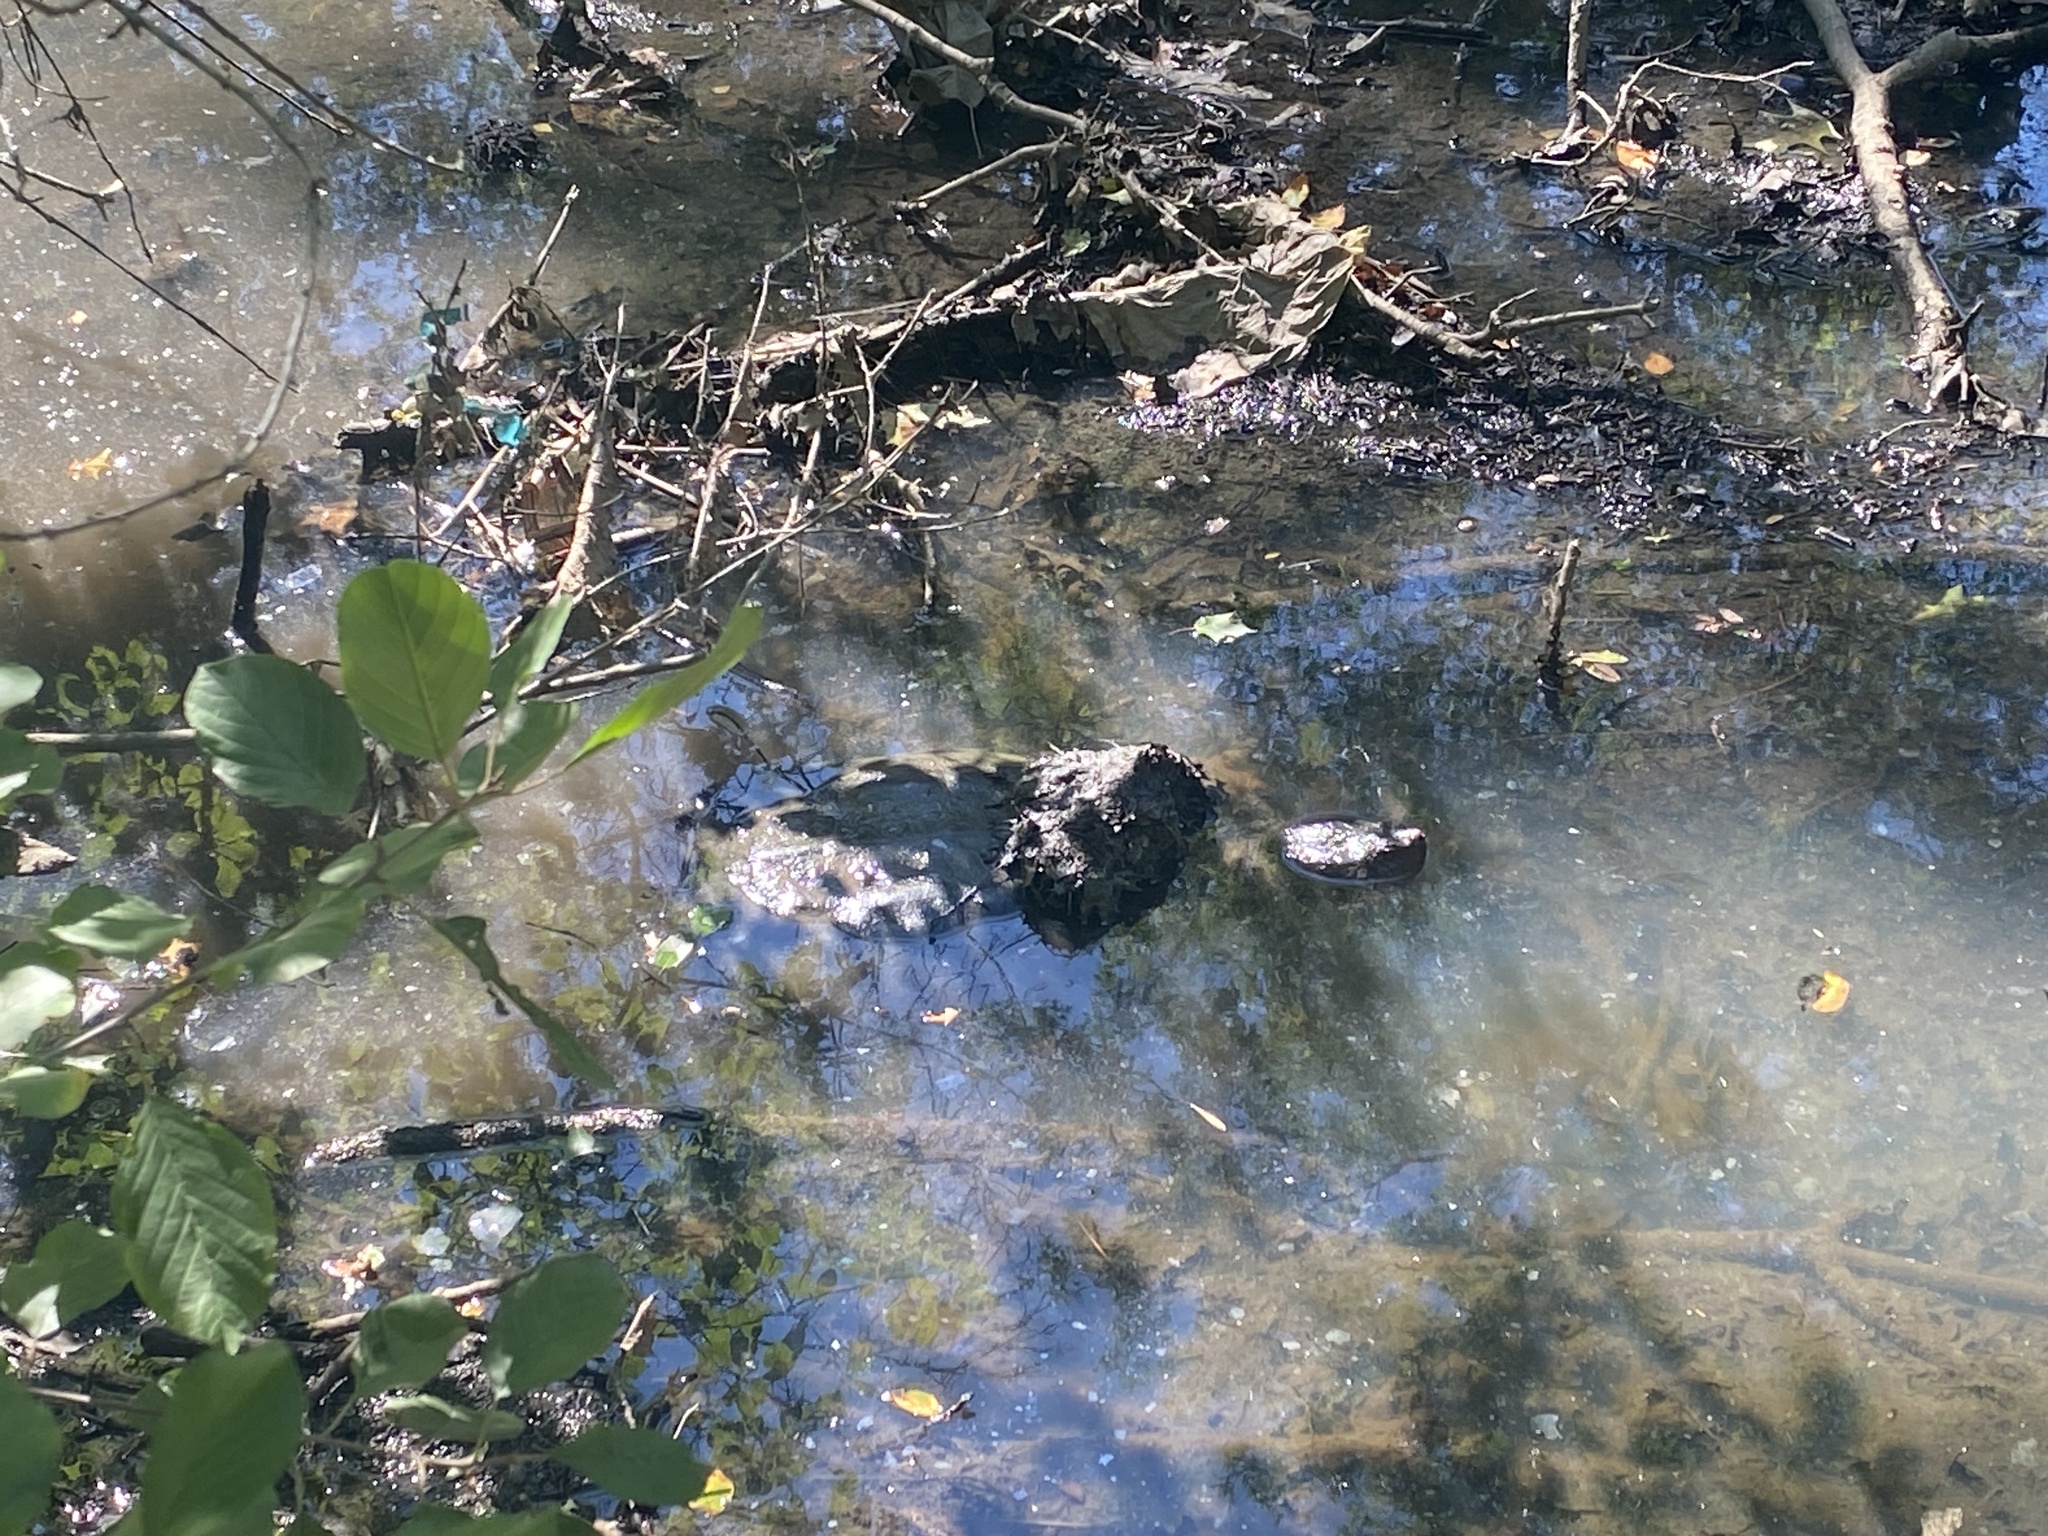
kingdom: Animalia
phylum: Chordata
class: Testudines
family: Chelydridae
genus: Chelydra
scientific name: Chelydra serpentina
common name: Common snapping turtle
